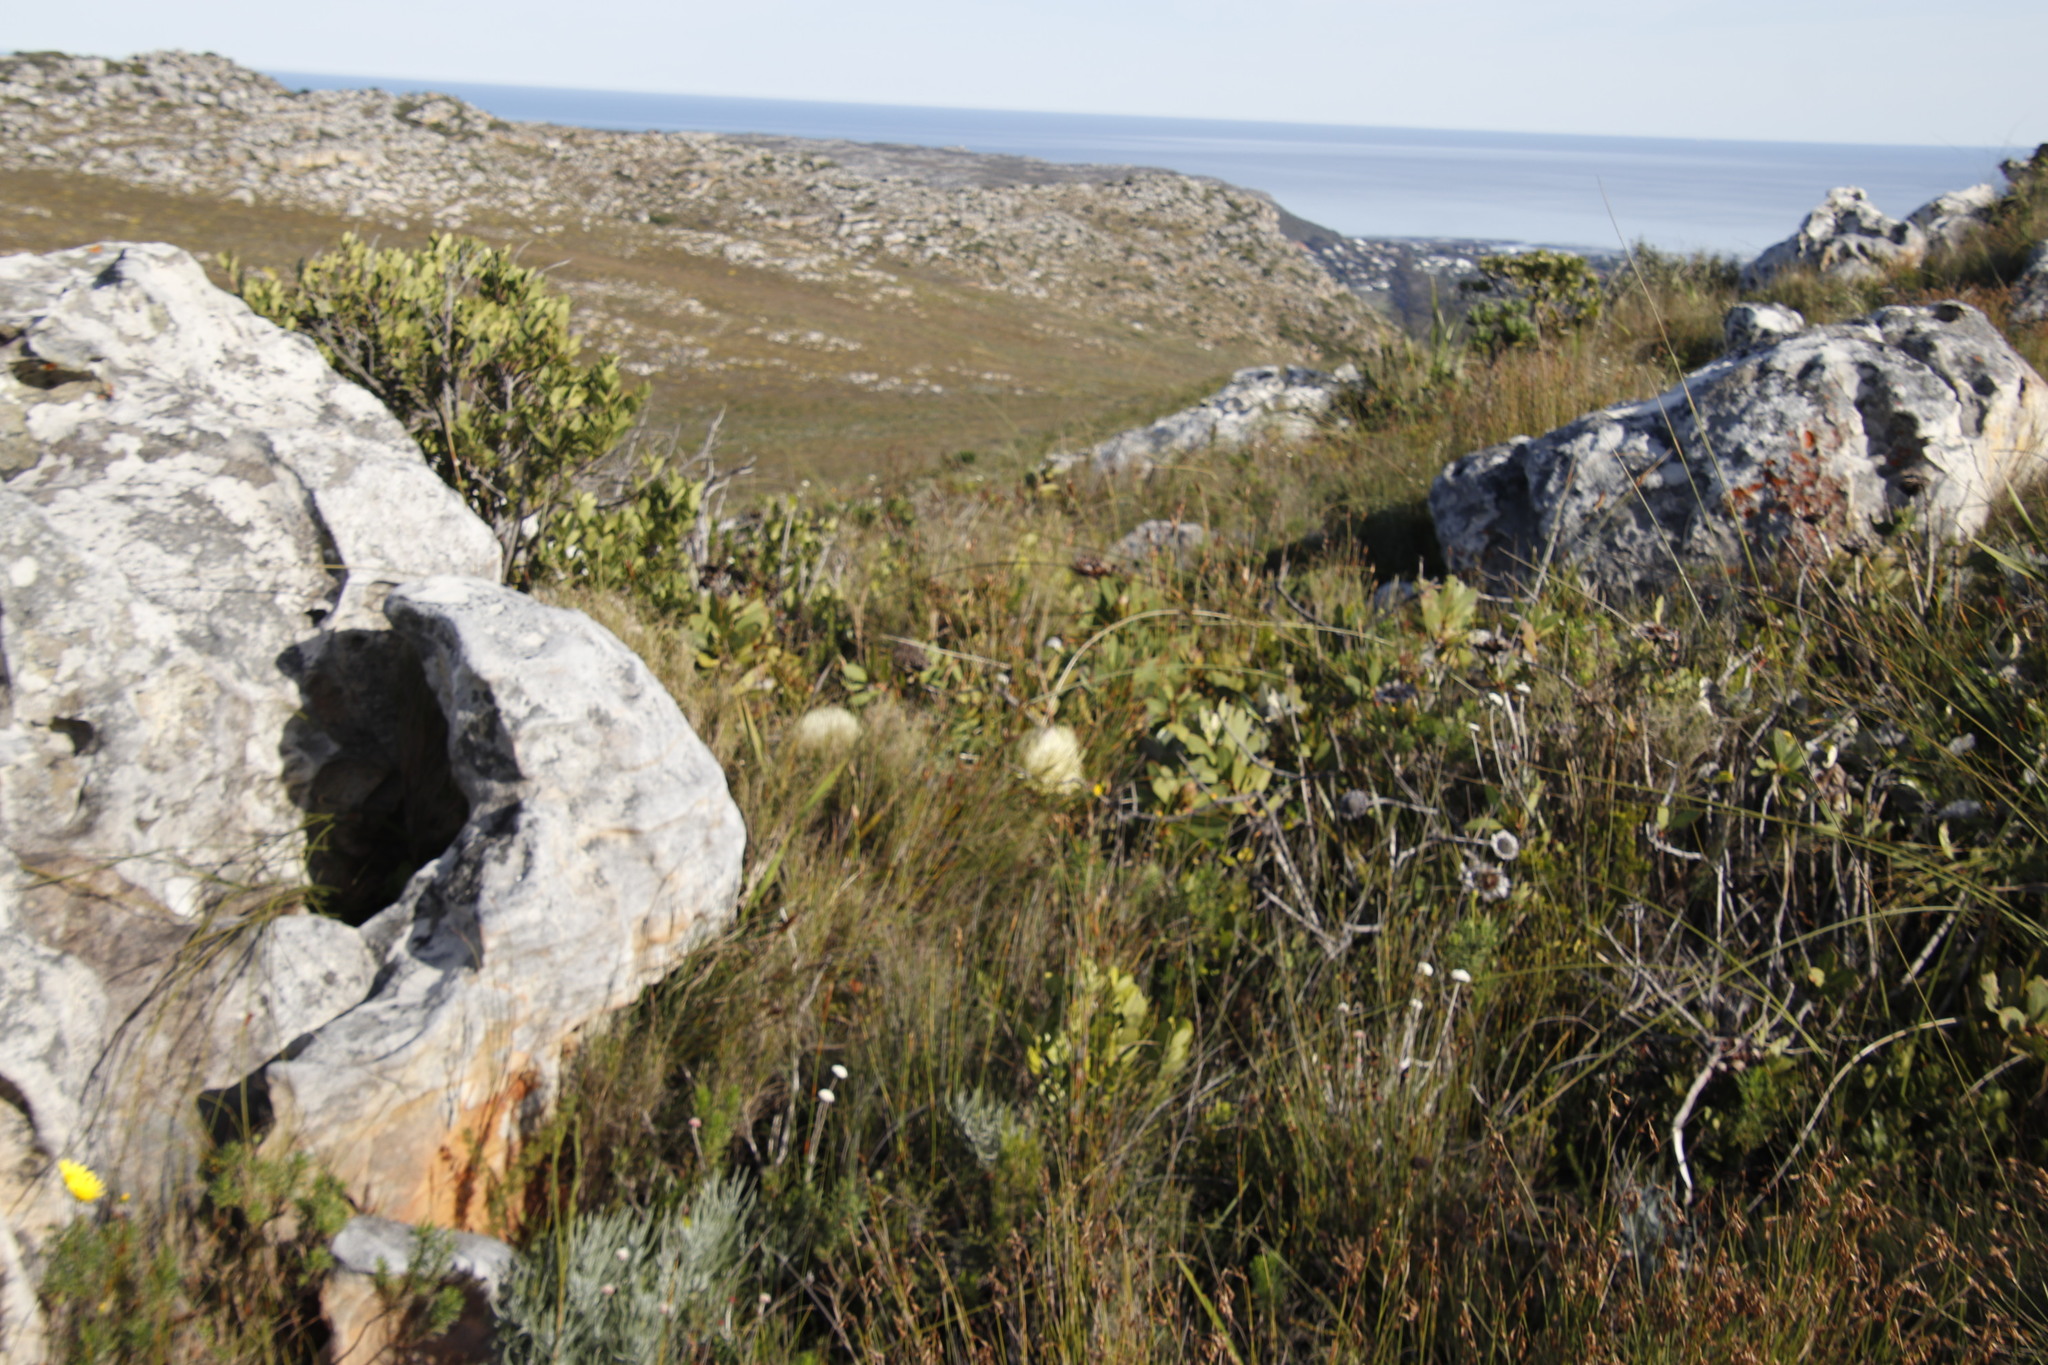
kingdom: Plantae
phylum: Tracheophyta
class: Magnoliopsida
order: Proteales
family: Proteaceae
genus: Protea
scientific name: Protea nitida
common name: Tree protea
